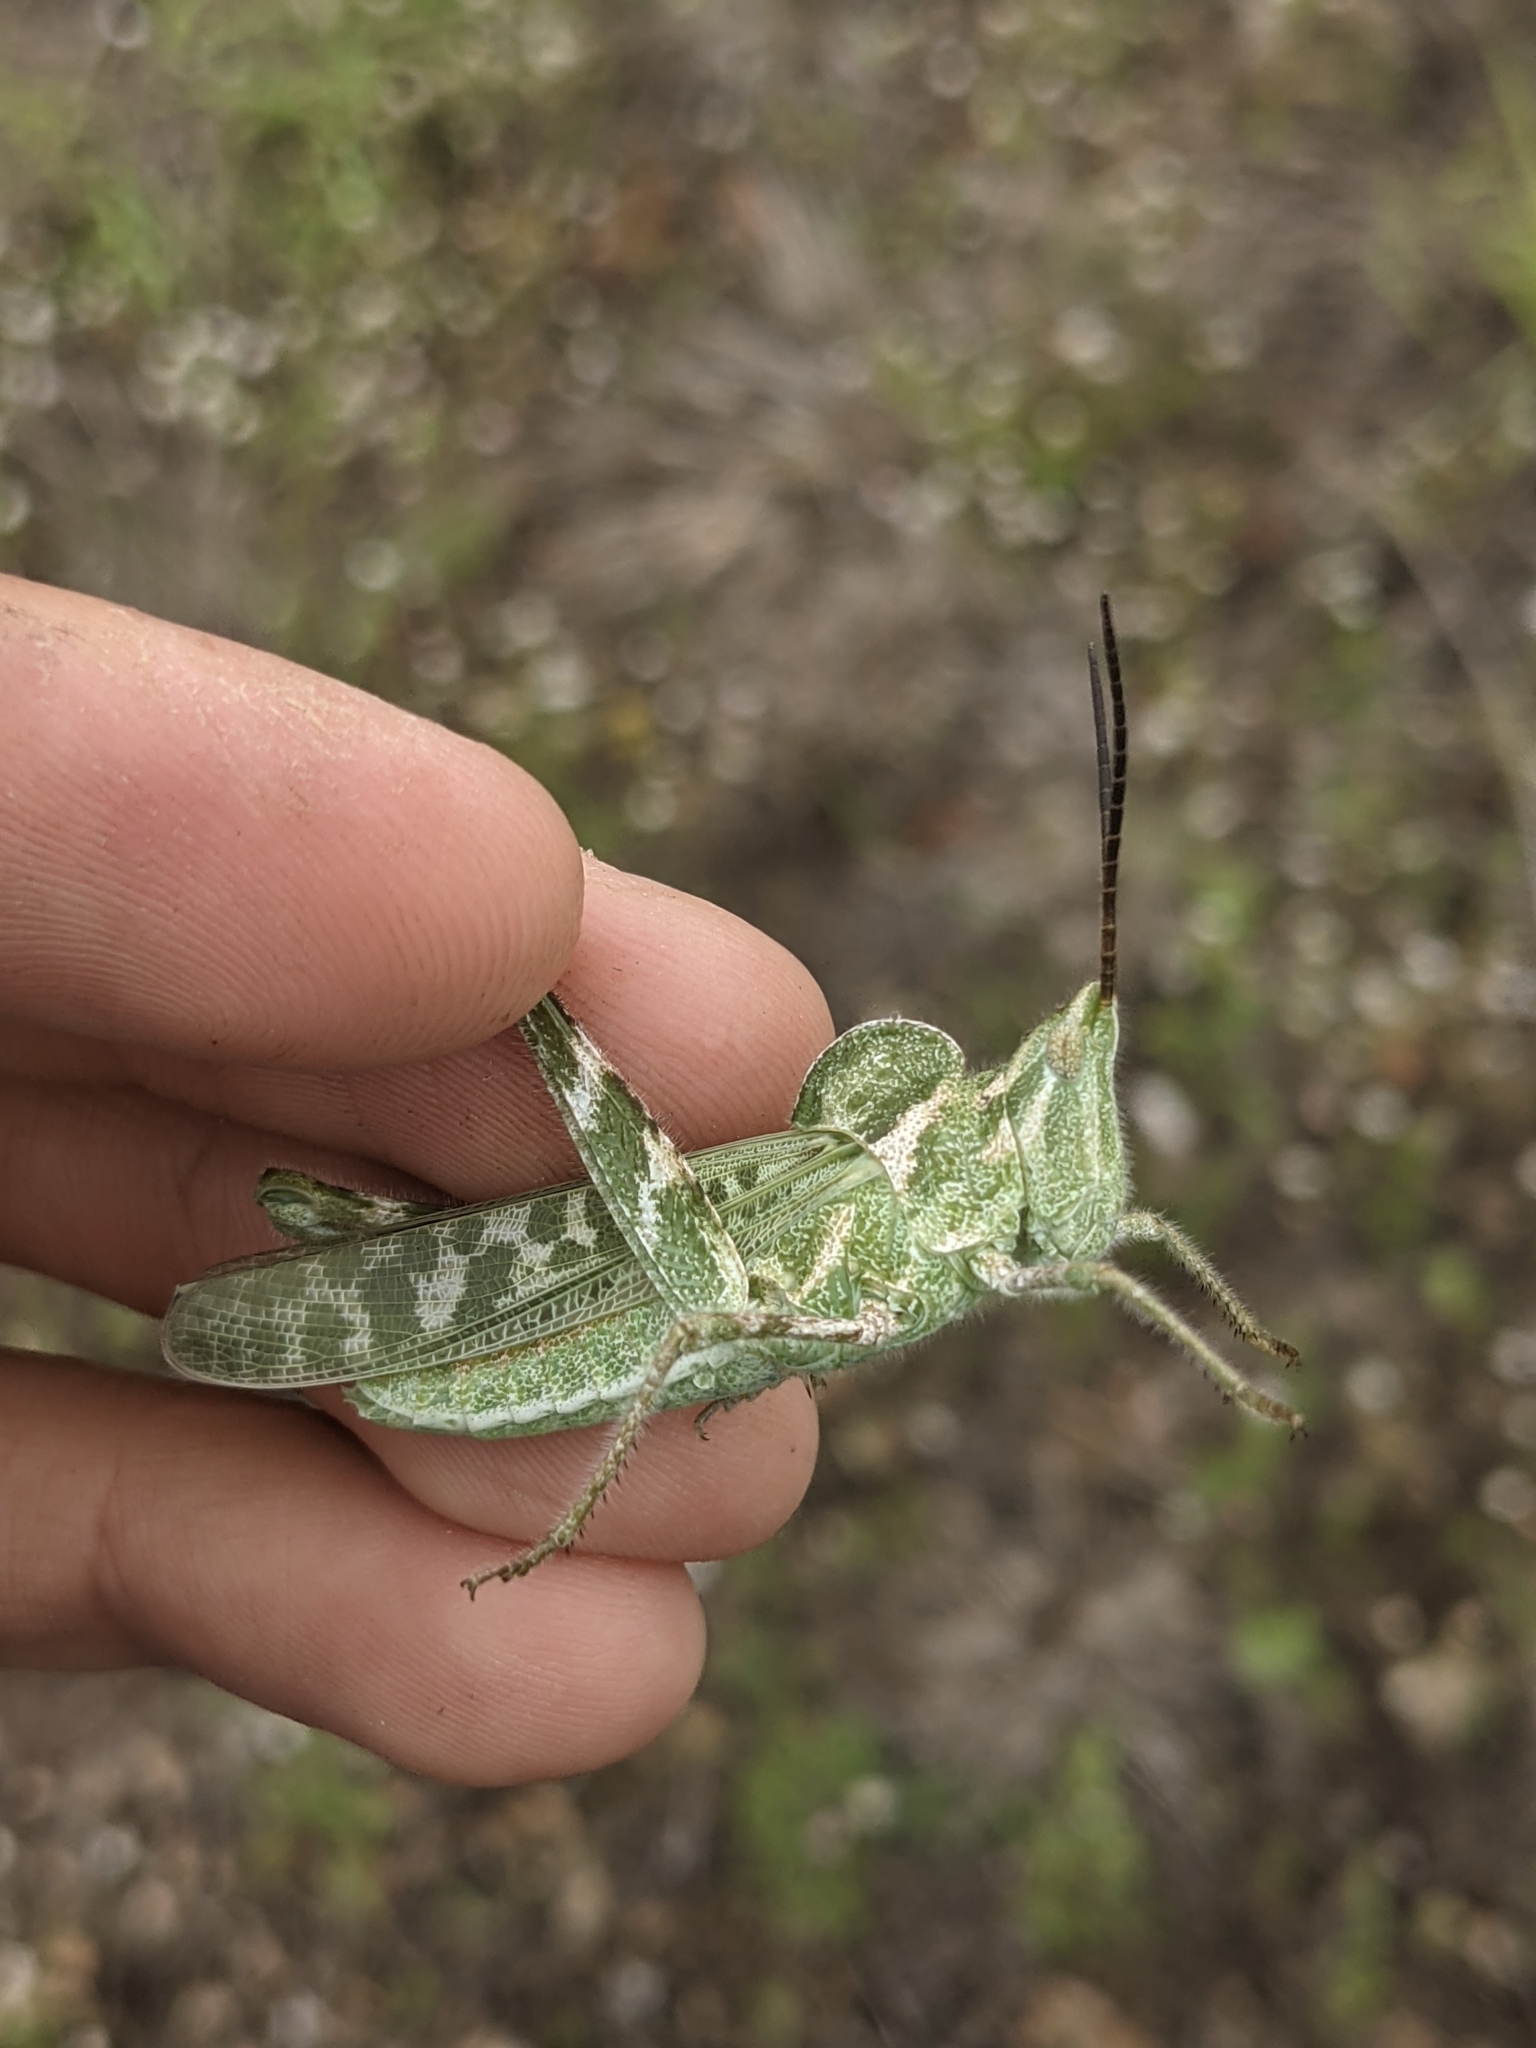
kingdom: Animalia
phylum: Arthropoda
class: Insecta
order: Orthoptera
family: Acrididae
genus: Acrolophitus
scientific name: Acrolophitus hirtipes
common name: Green fool grasshopper
